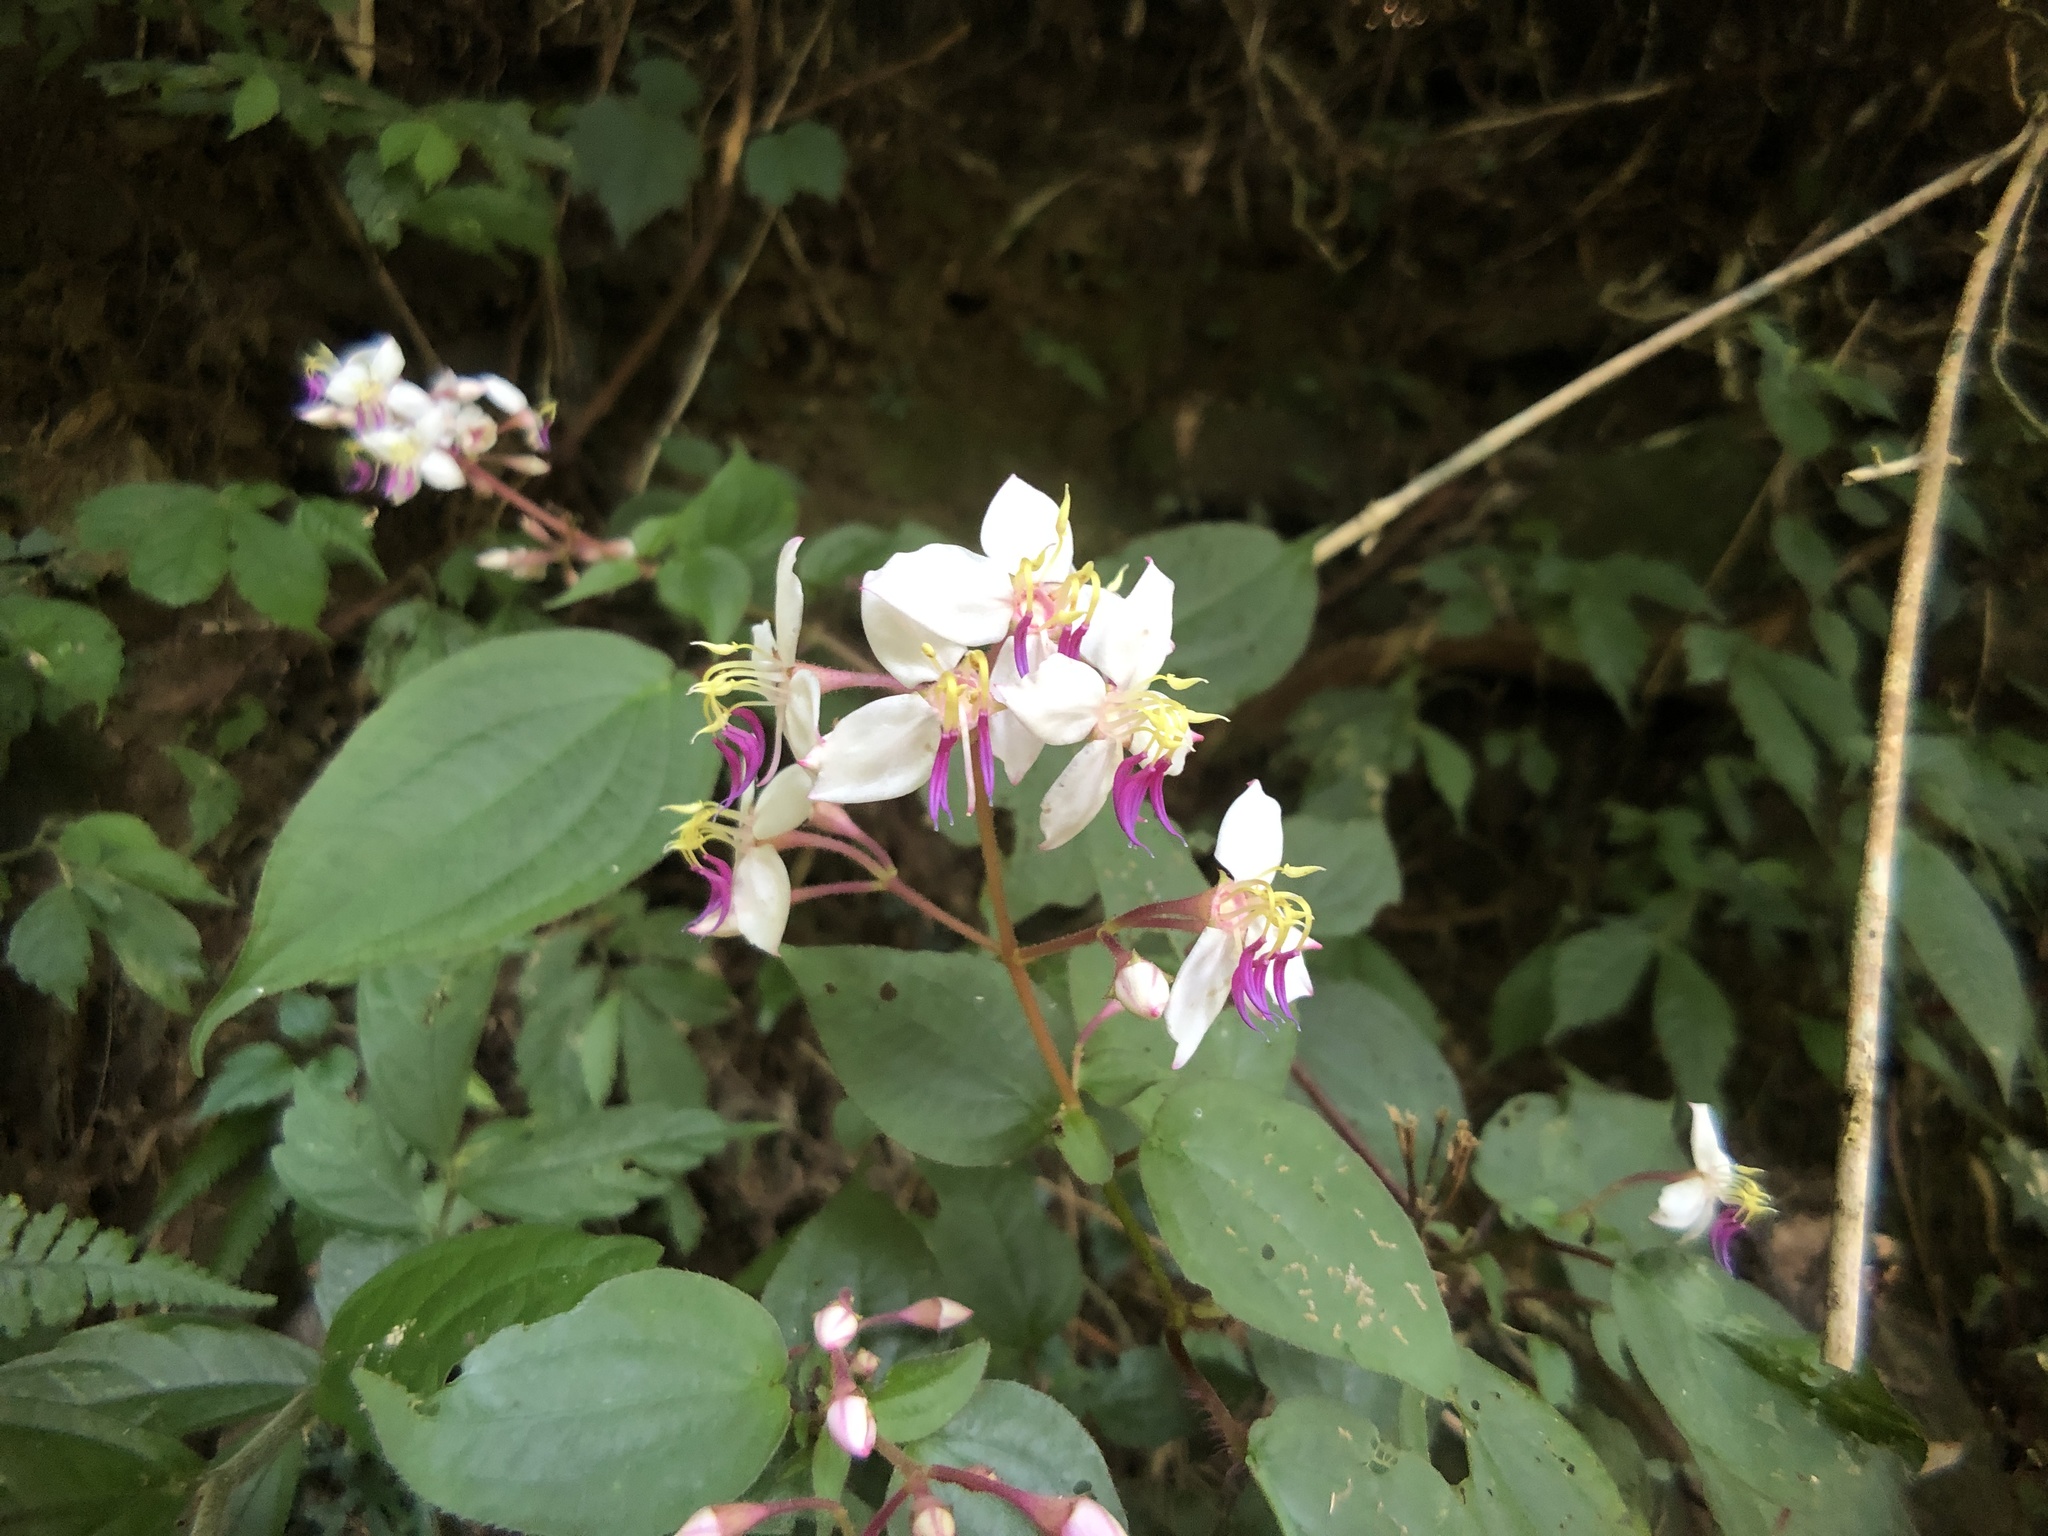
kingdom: Plantae
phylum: Tracheophyta
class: Magnoliopsida
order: Myrtales
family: Melastomataceae
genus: Bredia
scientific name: Bredia hirsuta
